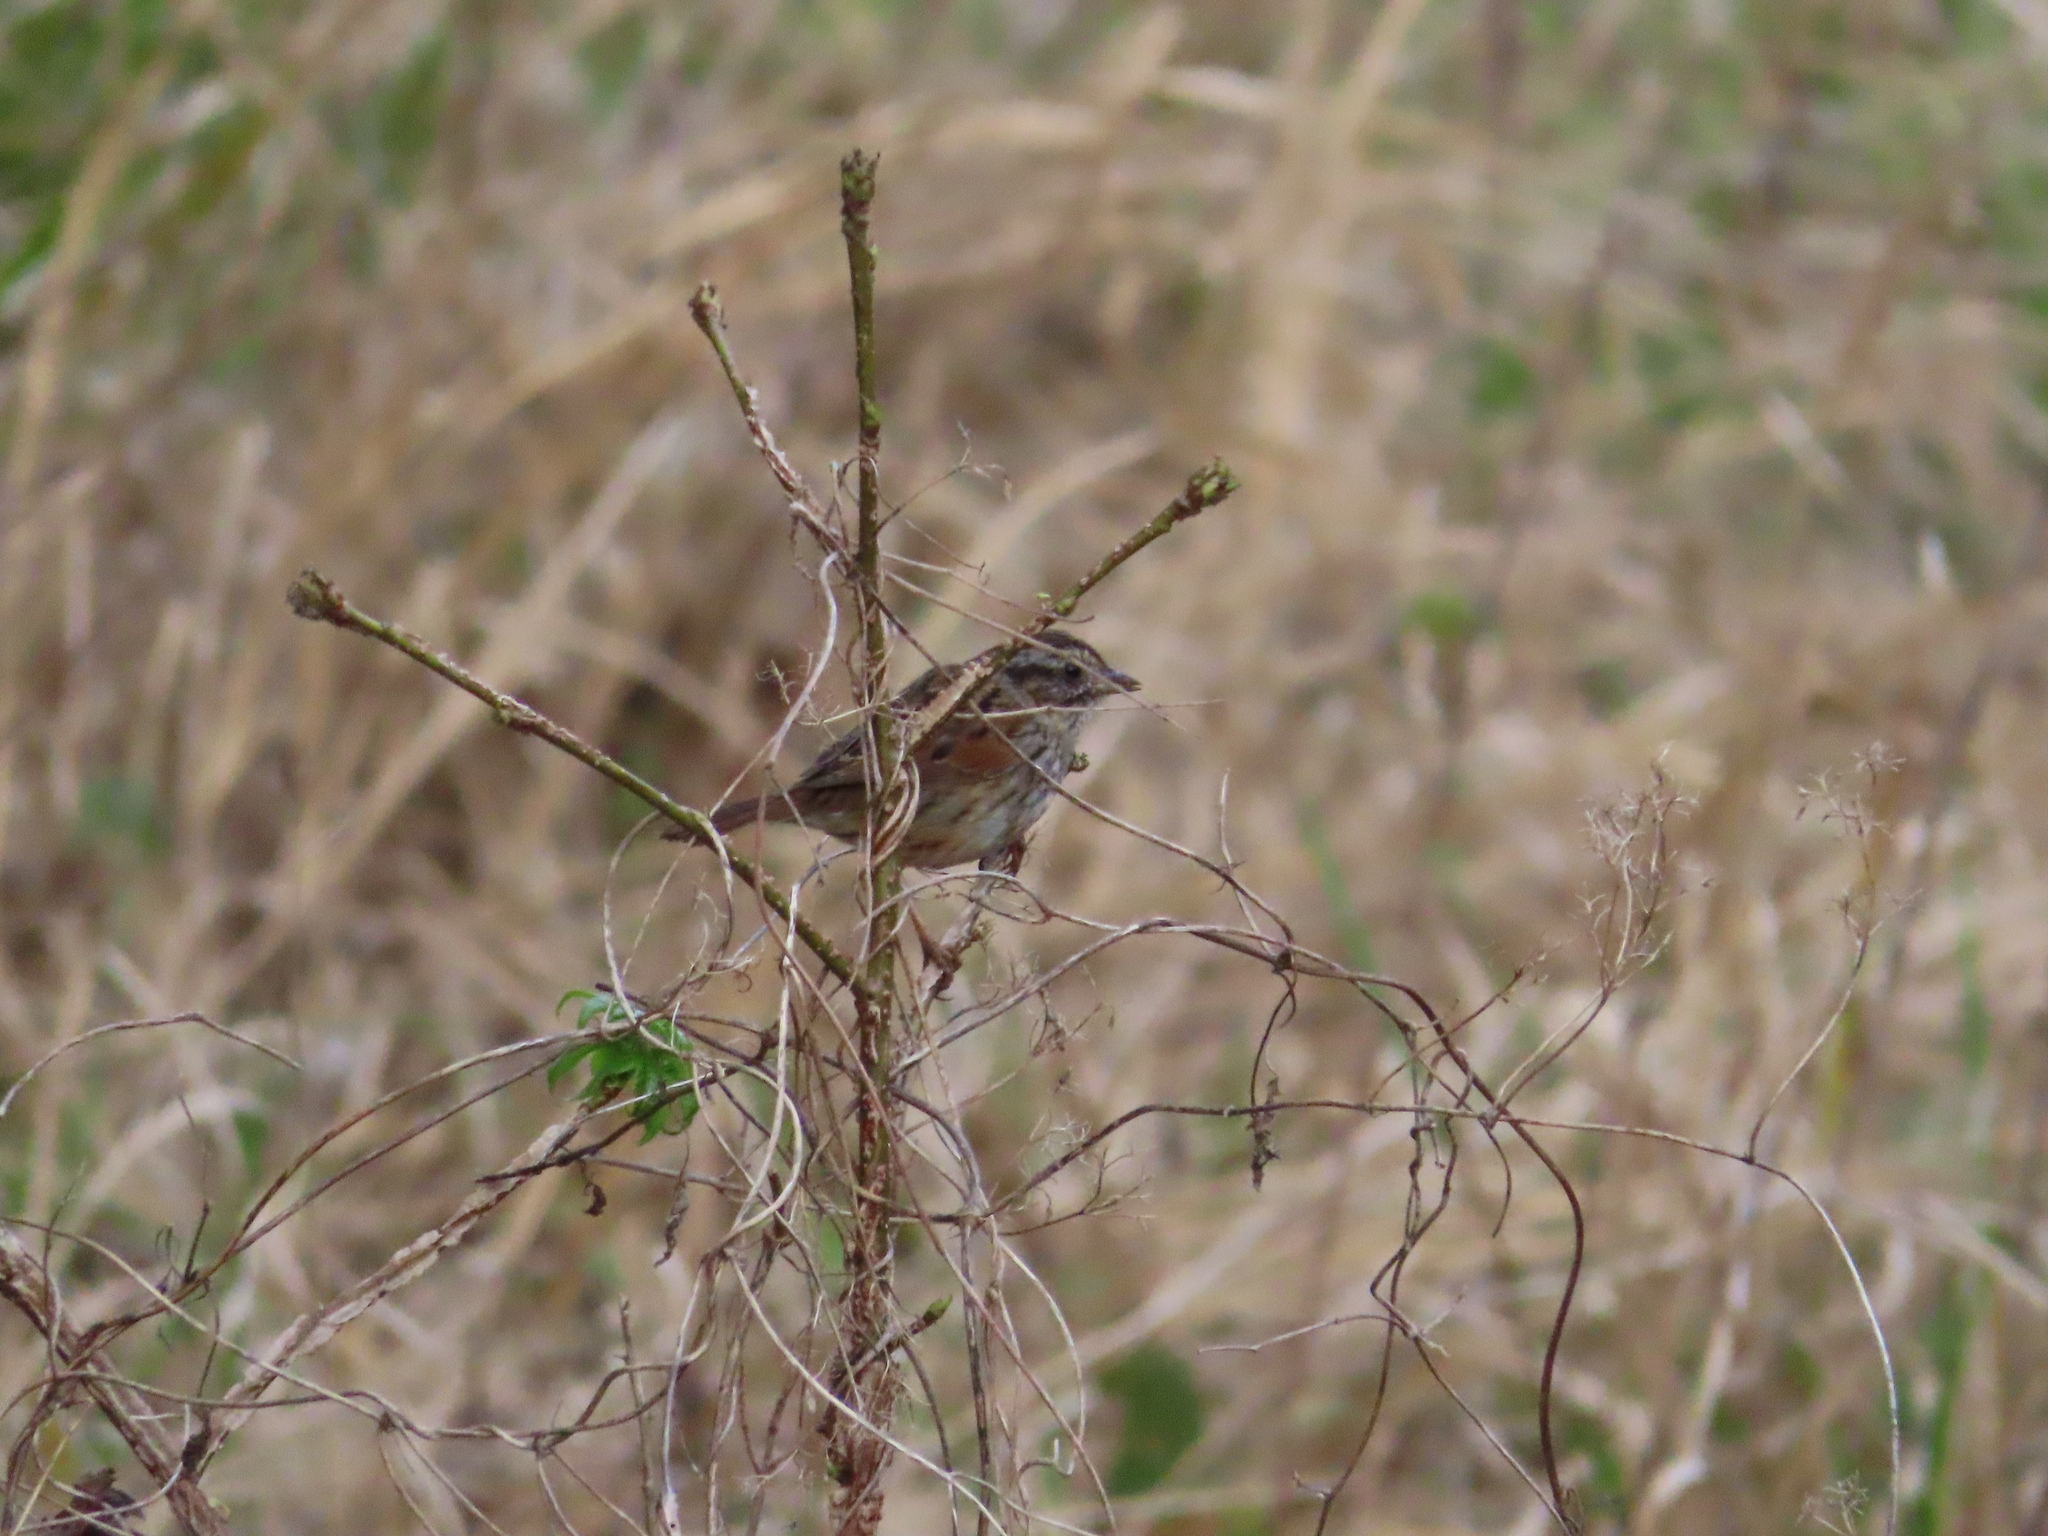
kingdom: Animalia
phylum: Chordata
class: Aves
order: Passeriformes
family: Passerellidae
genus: Melospiza
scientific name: Melospiza georgiana
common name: Swamp sparrow
